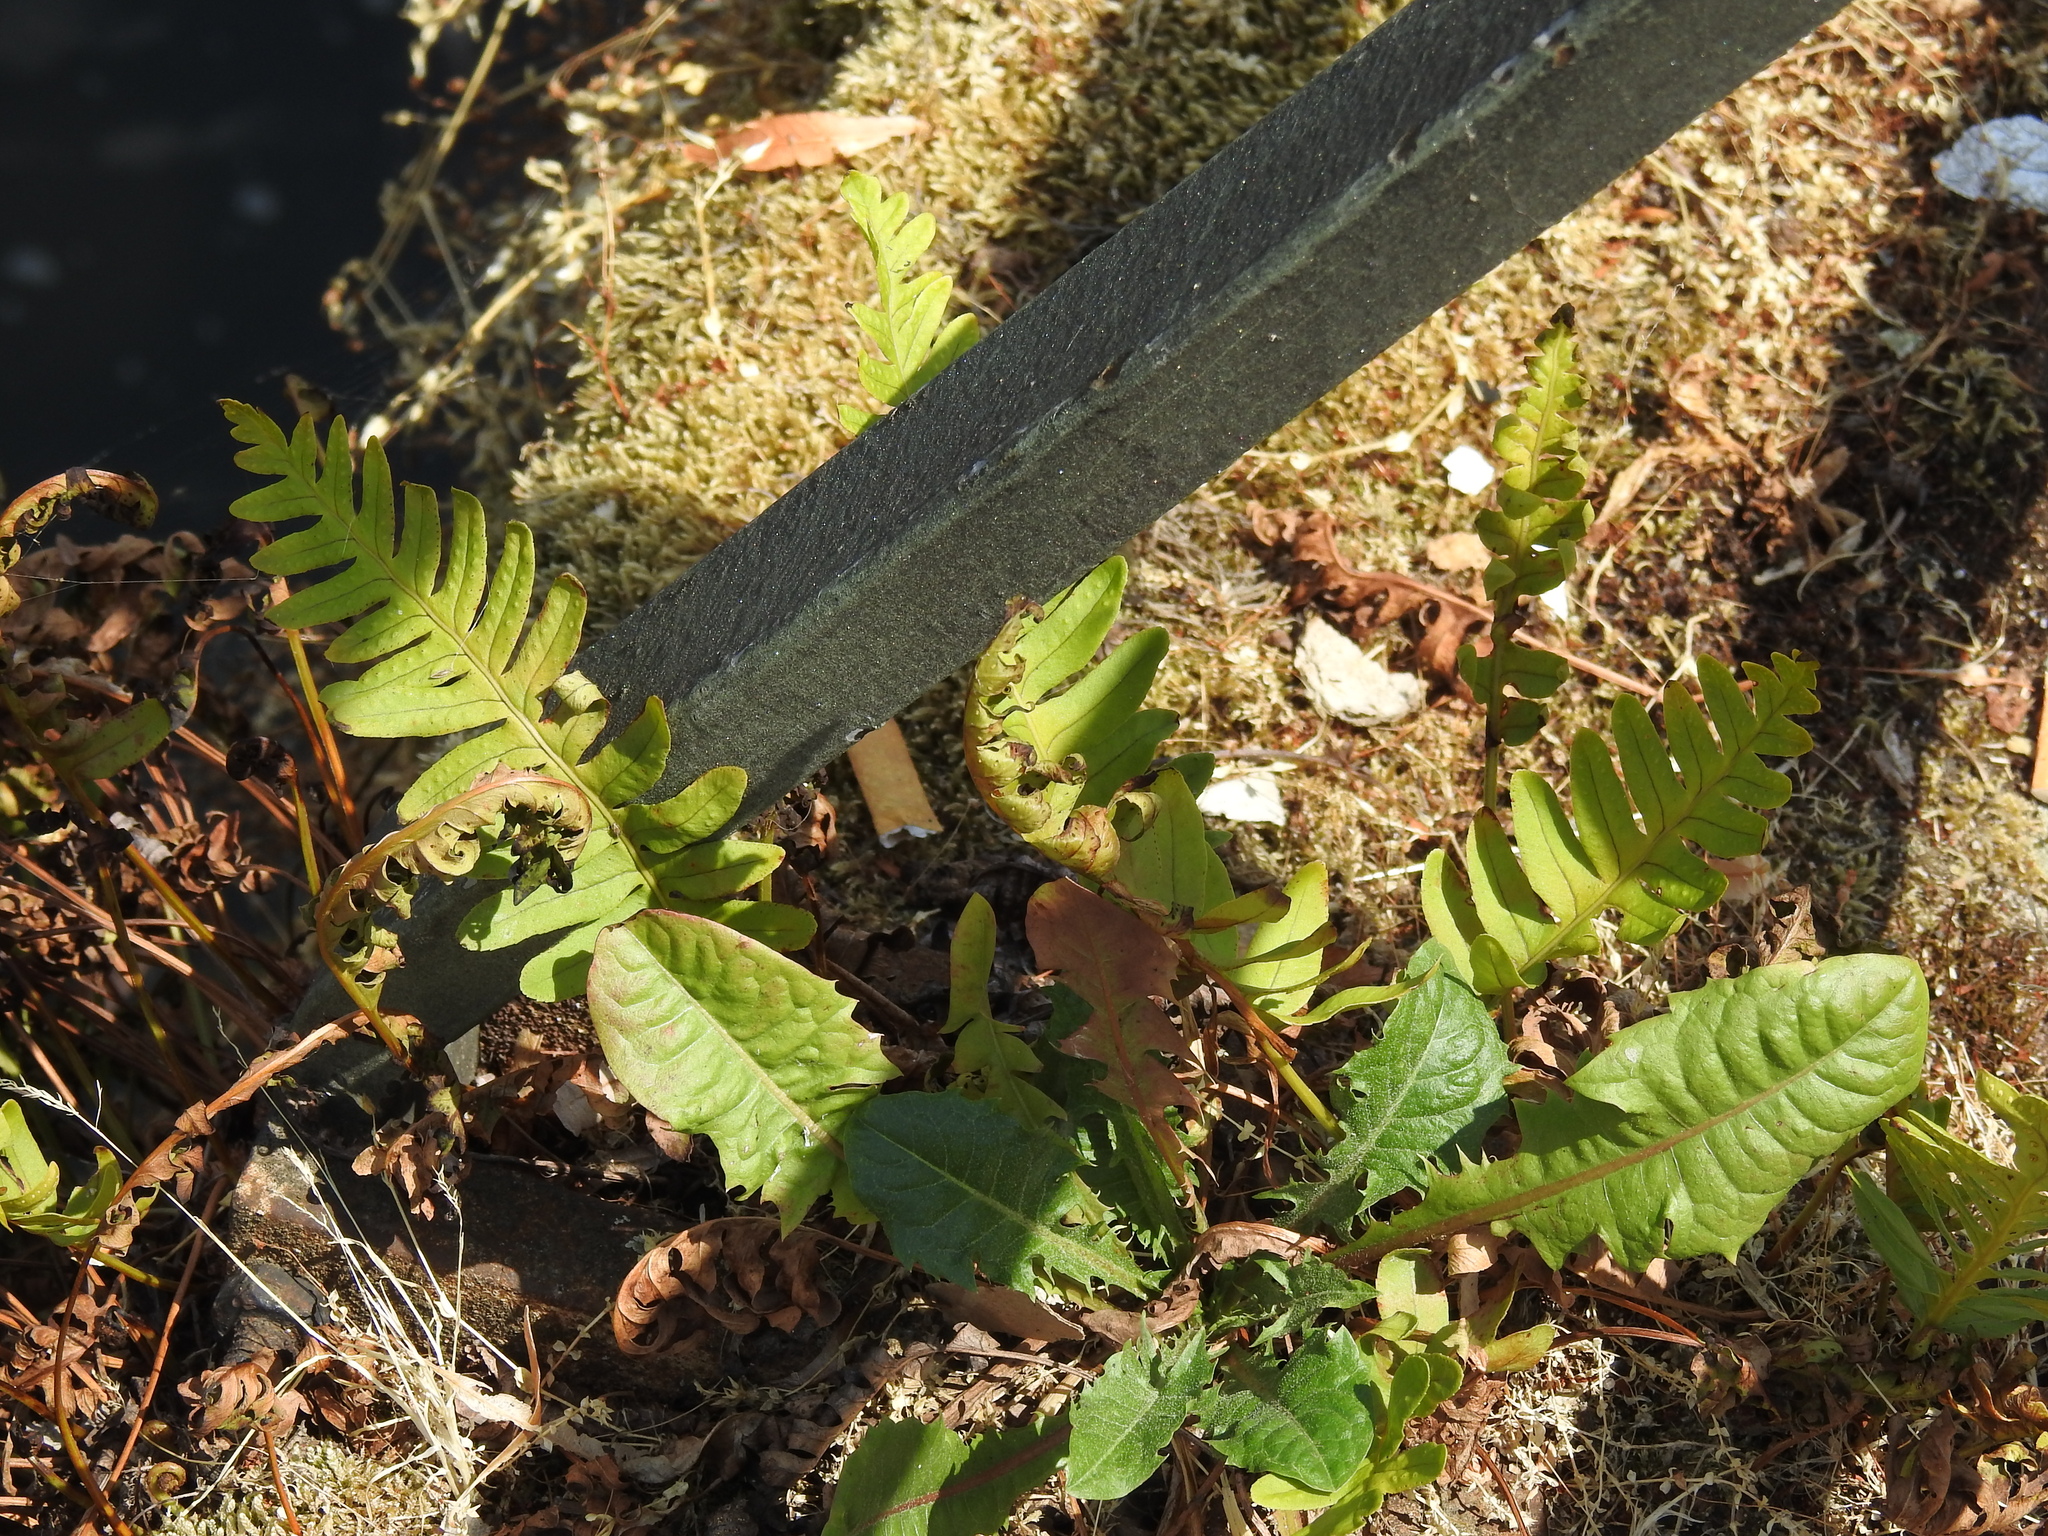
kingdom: Plantae
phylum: Tracheophyta
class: Polypodiopsida
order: Polypodiales
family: Polypodiaceae
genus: Polypodium
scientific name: Polypodium vulgare
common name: Common polypody
